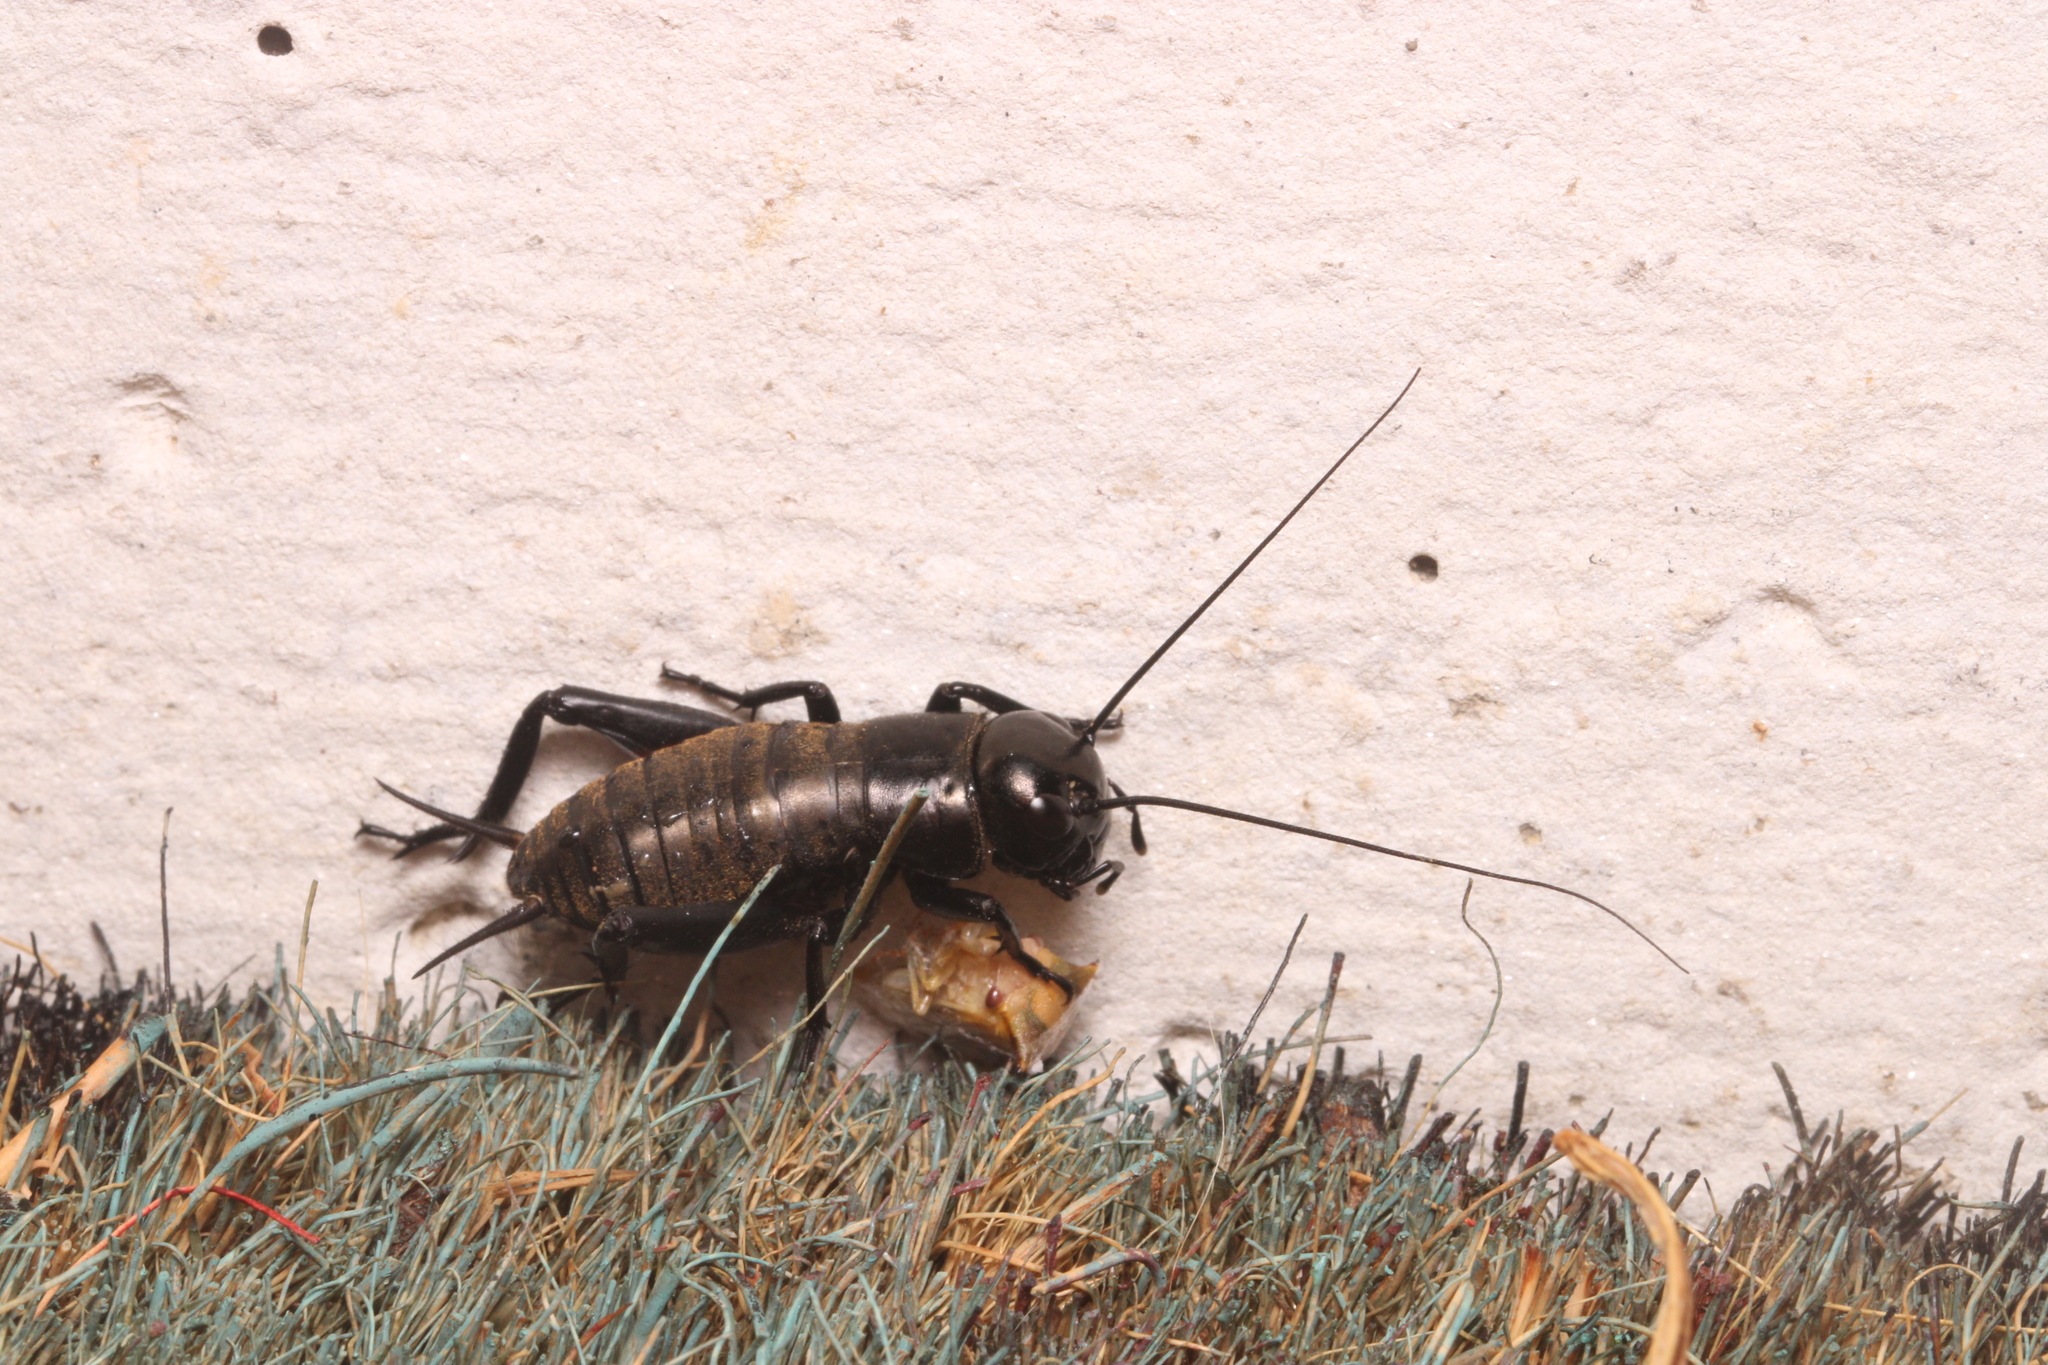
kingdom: Animalia
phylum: Arthropoda
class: Insecta
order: Orthoptera
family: Gryllidae
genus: Gryllus
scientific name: Gryllus campestris
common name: Field cricket
